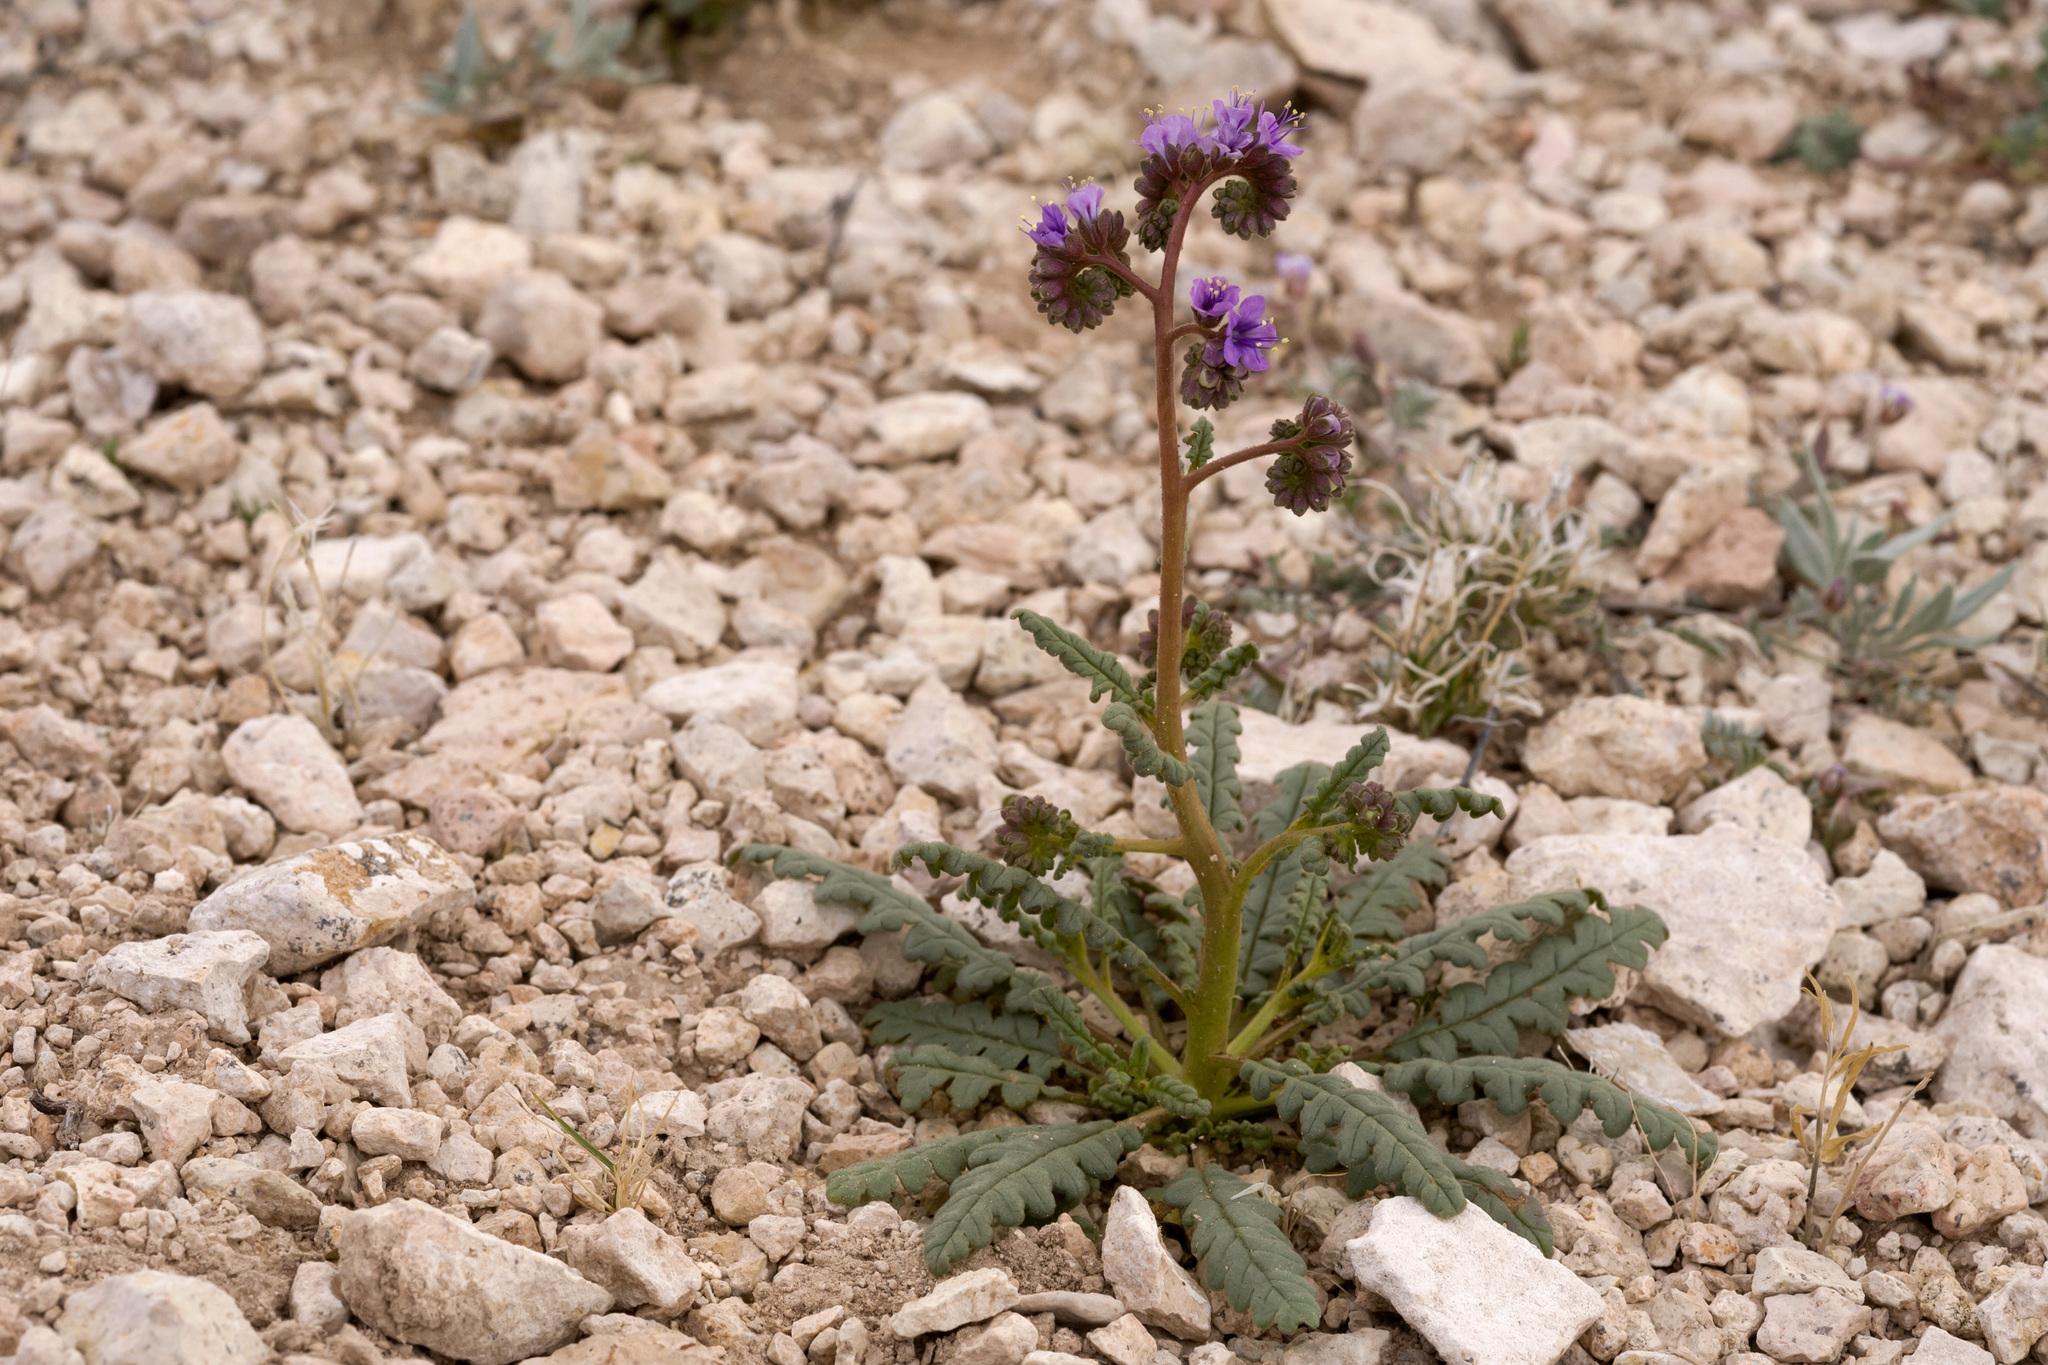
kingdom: Plantae
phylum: Tracheophyta
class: Magnoliopsida
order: Boraginales
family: Hydrophyllaceae
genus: Phacelia
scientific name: Phacelia crenulata
